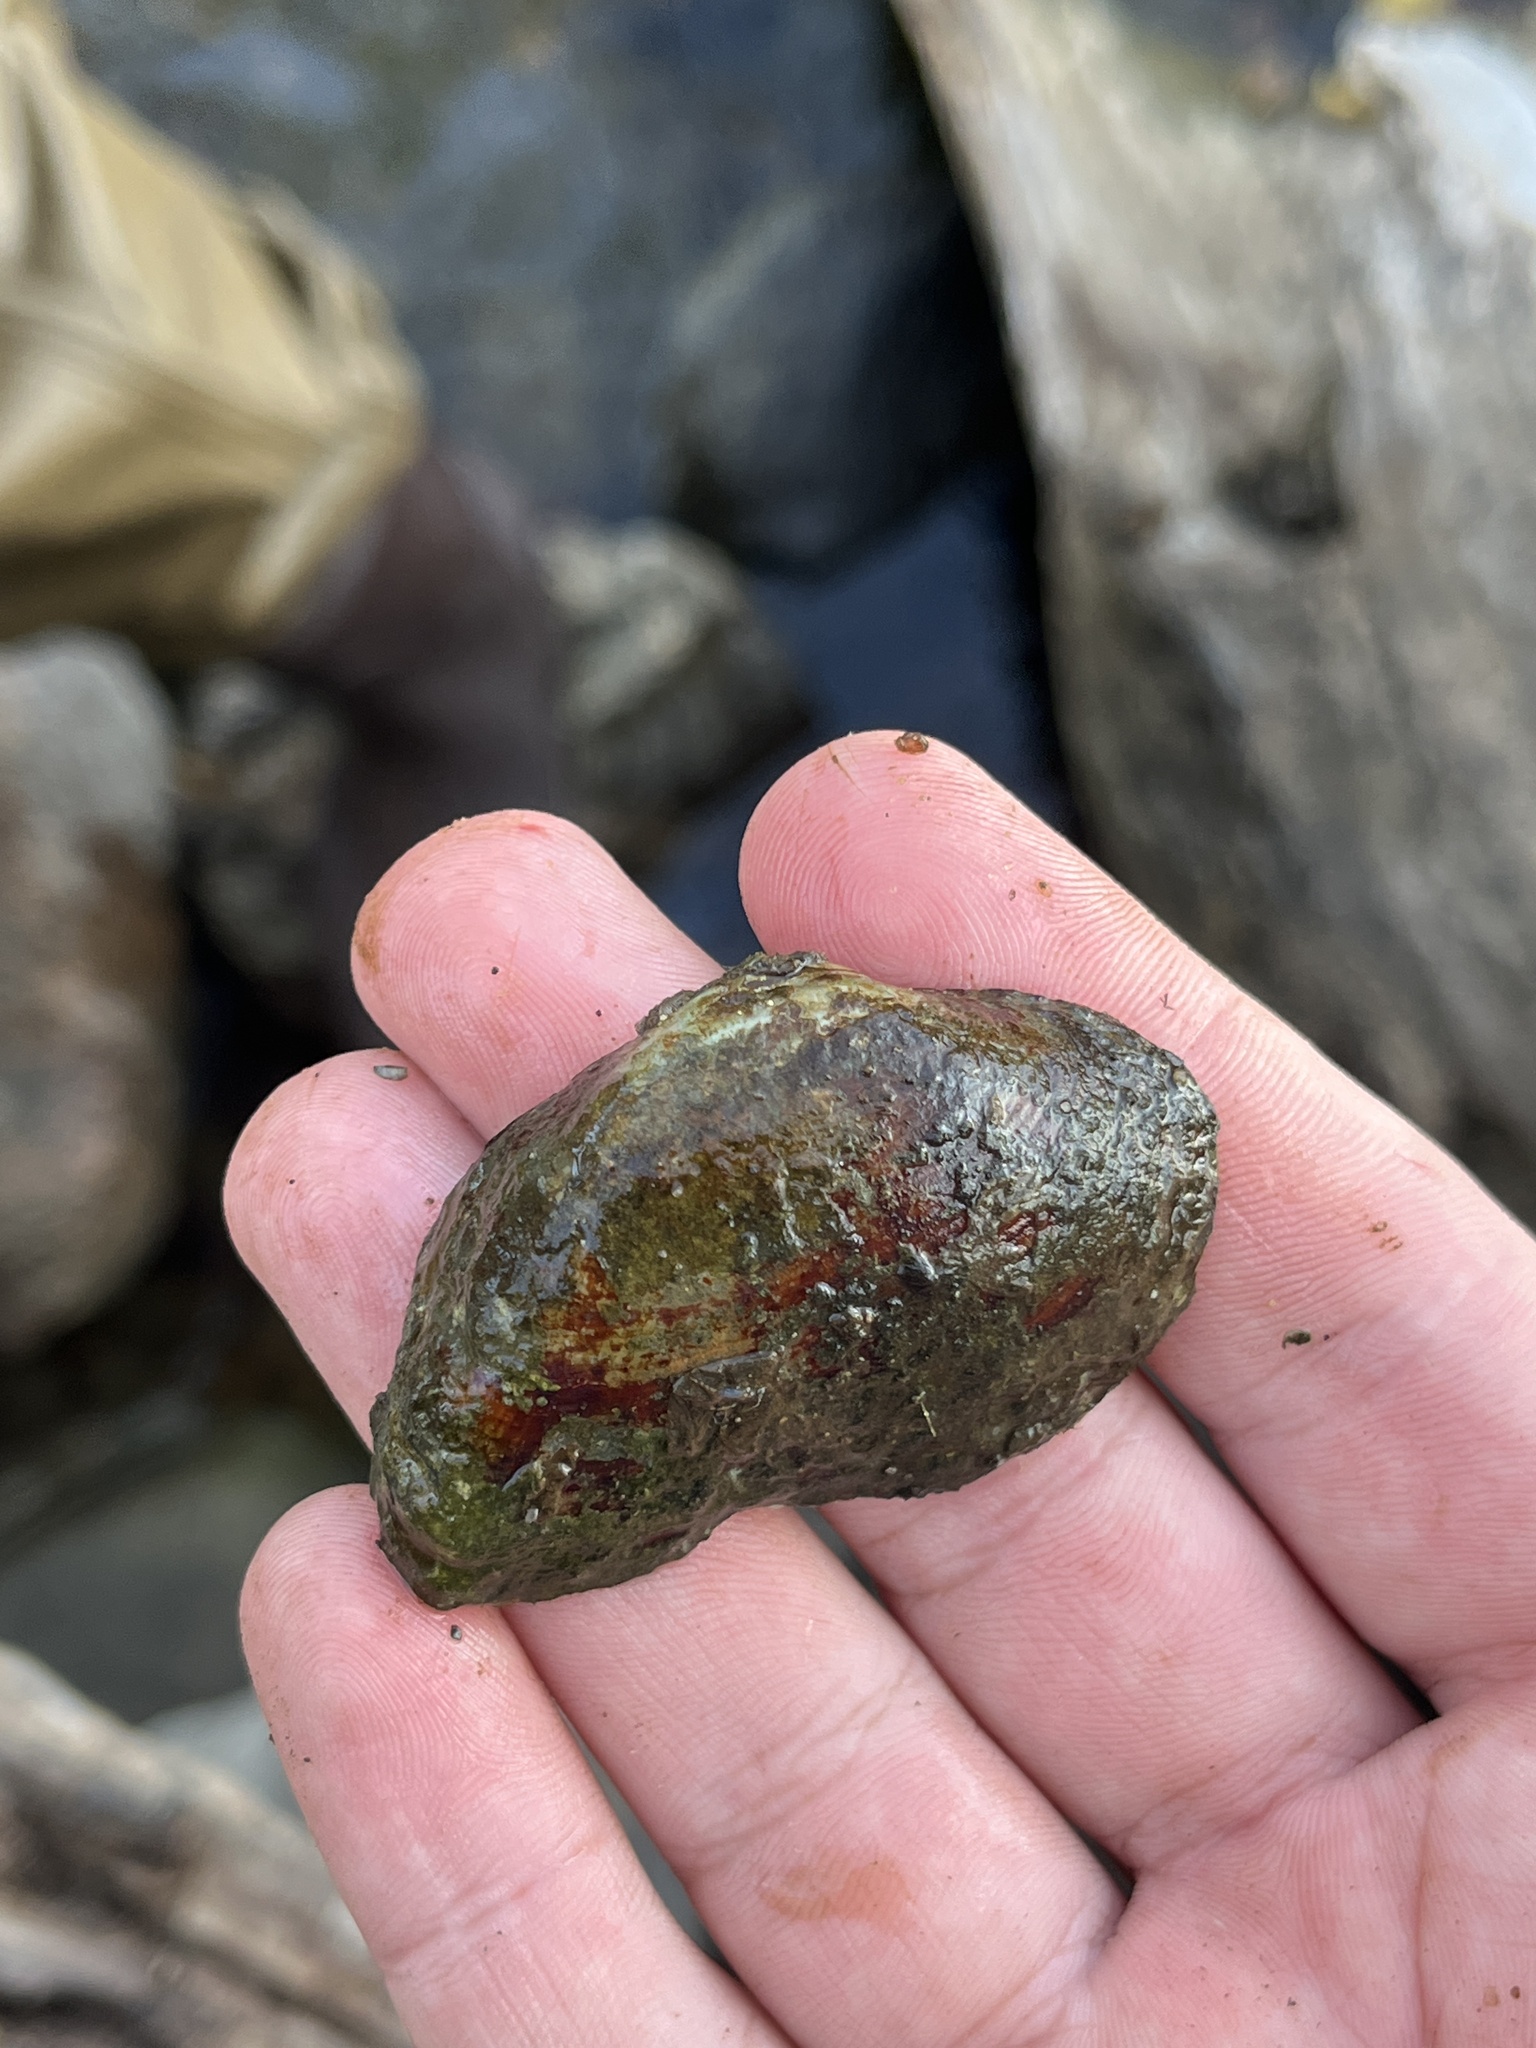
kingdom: Animalia
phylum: Mollusca
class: Bivalvia
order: Unionida
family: Unionidae
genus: Alasmidonta
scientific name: Alasmidonta marginata
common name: Elktoe
